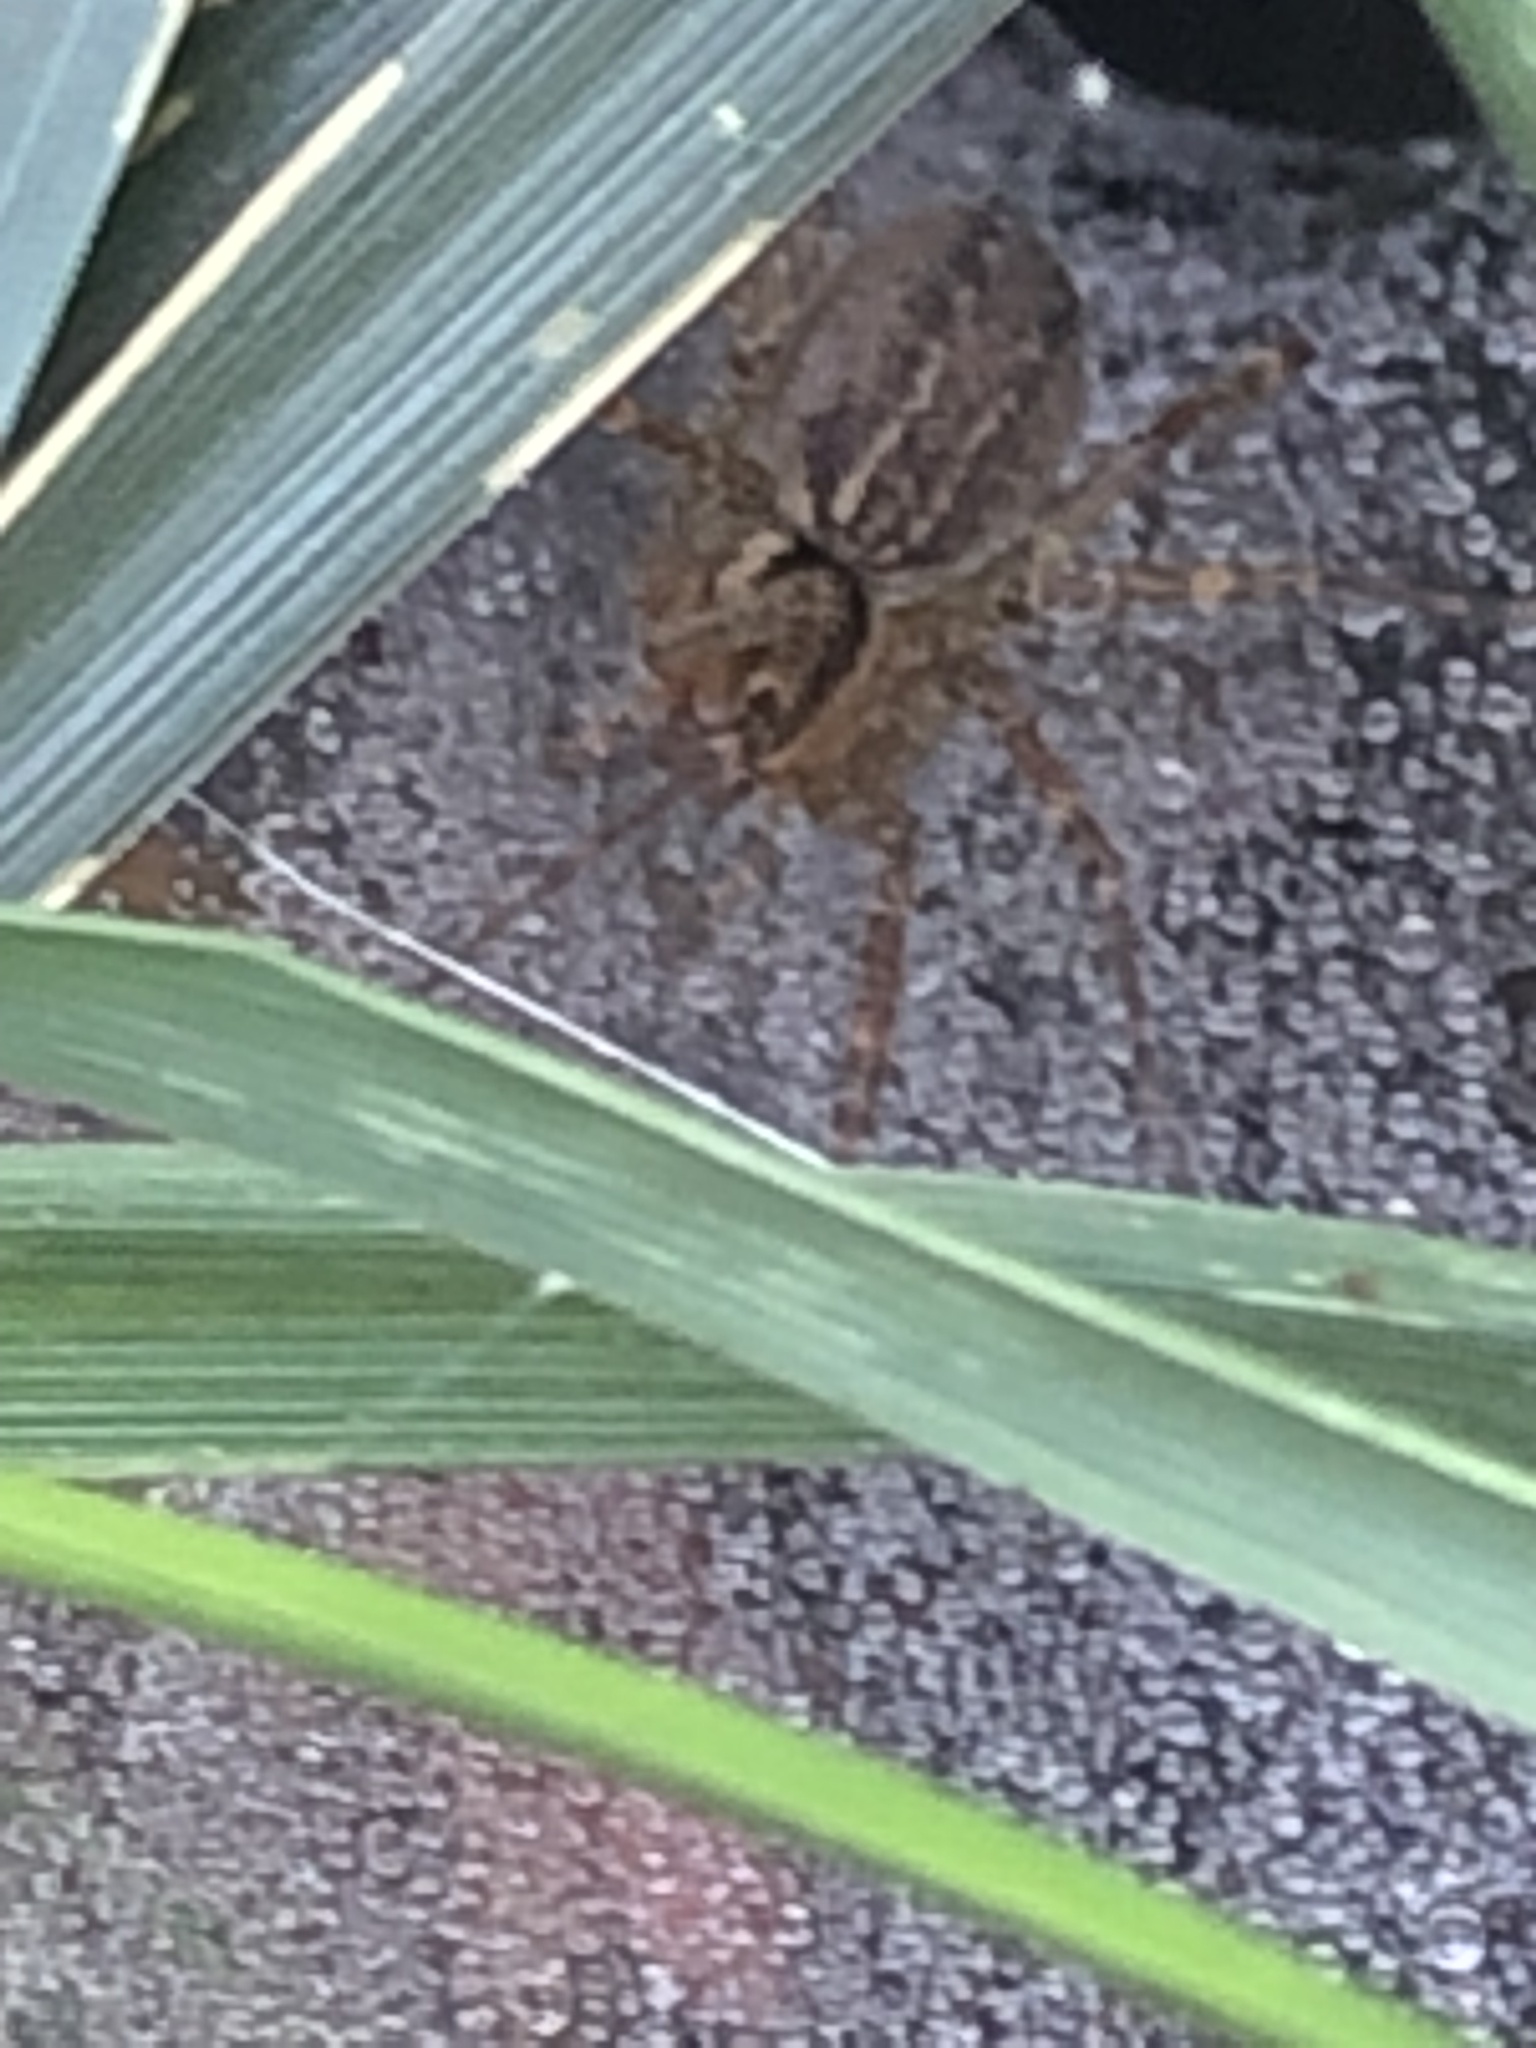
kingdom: Animalia
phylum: Arthropoda
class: Arachnida
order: Araneae
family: Agelenidae
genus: Agelenopsis
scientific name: Agelenopsis
